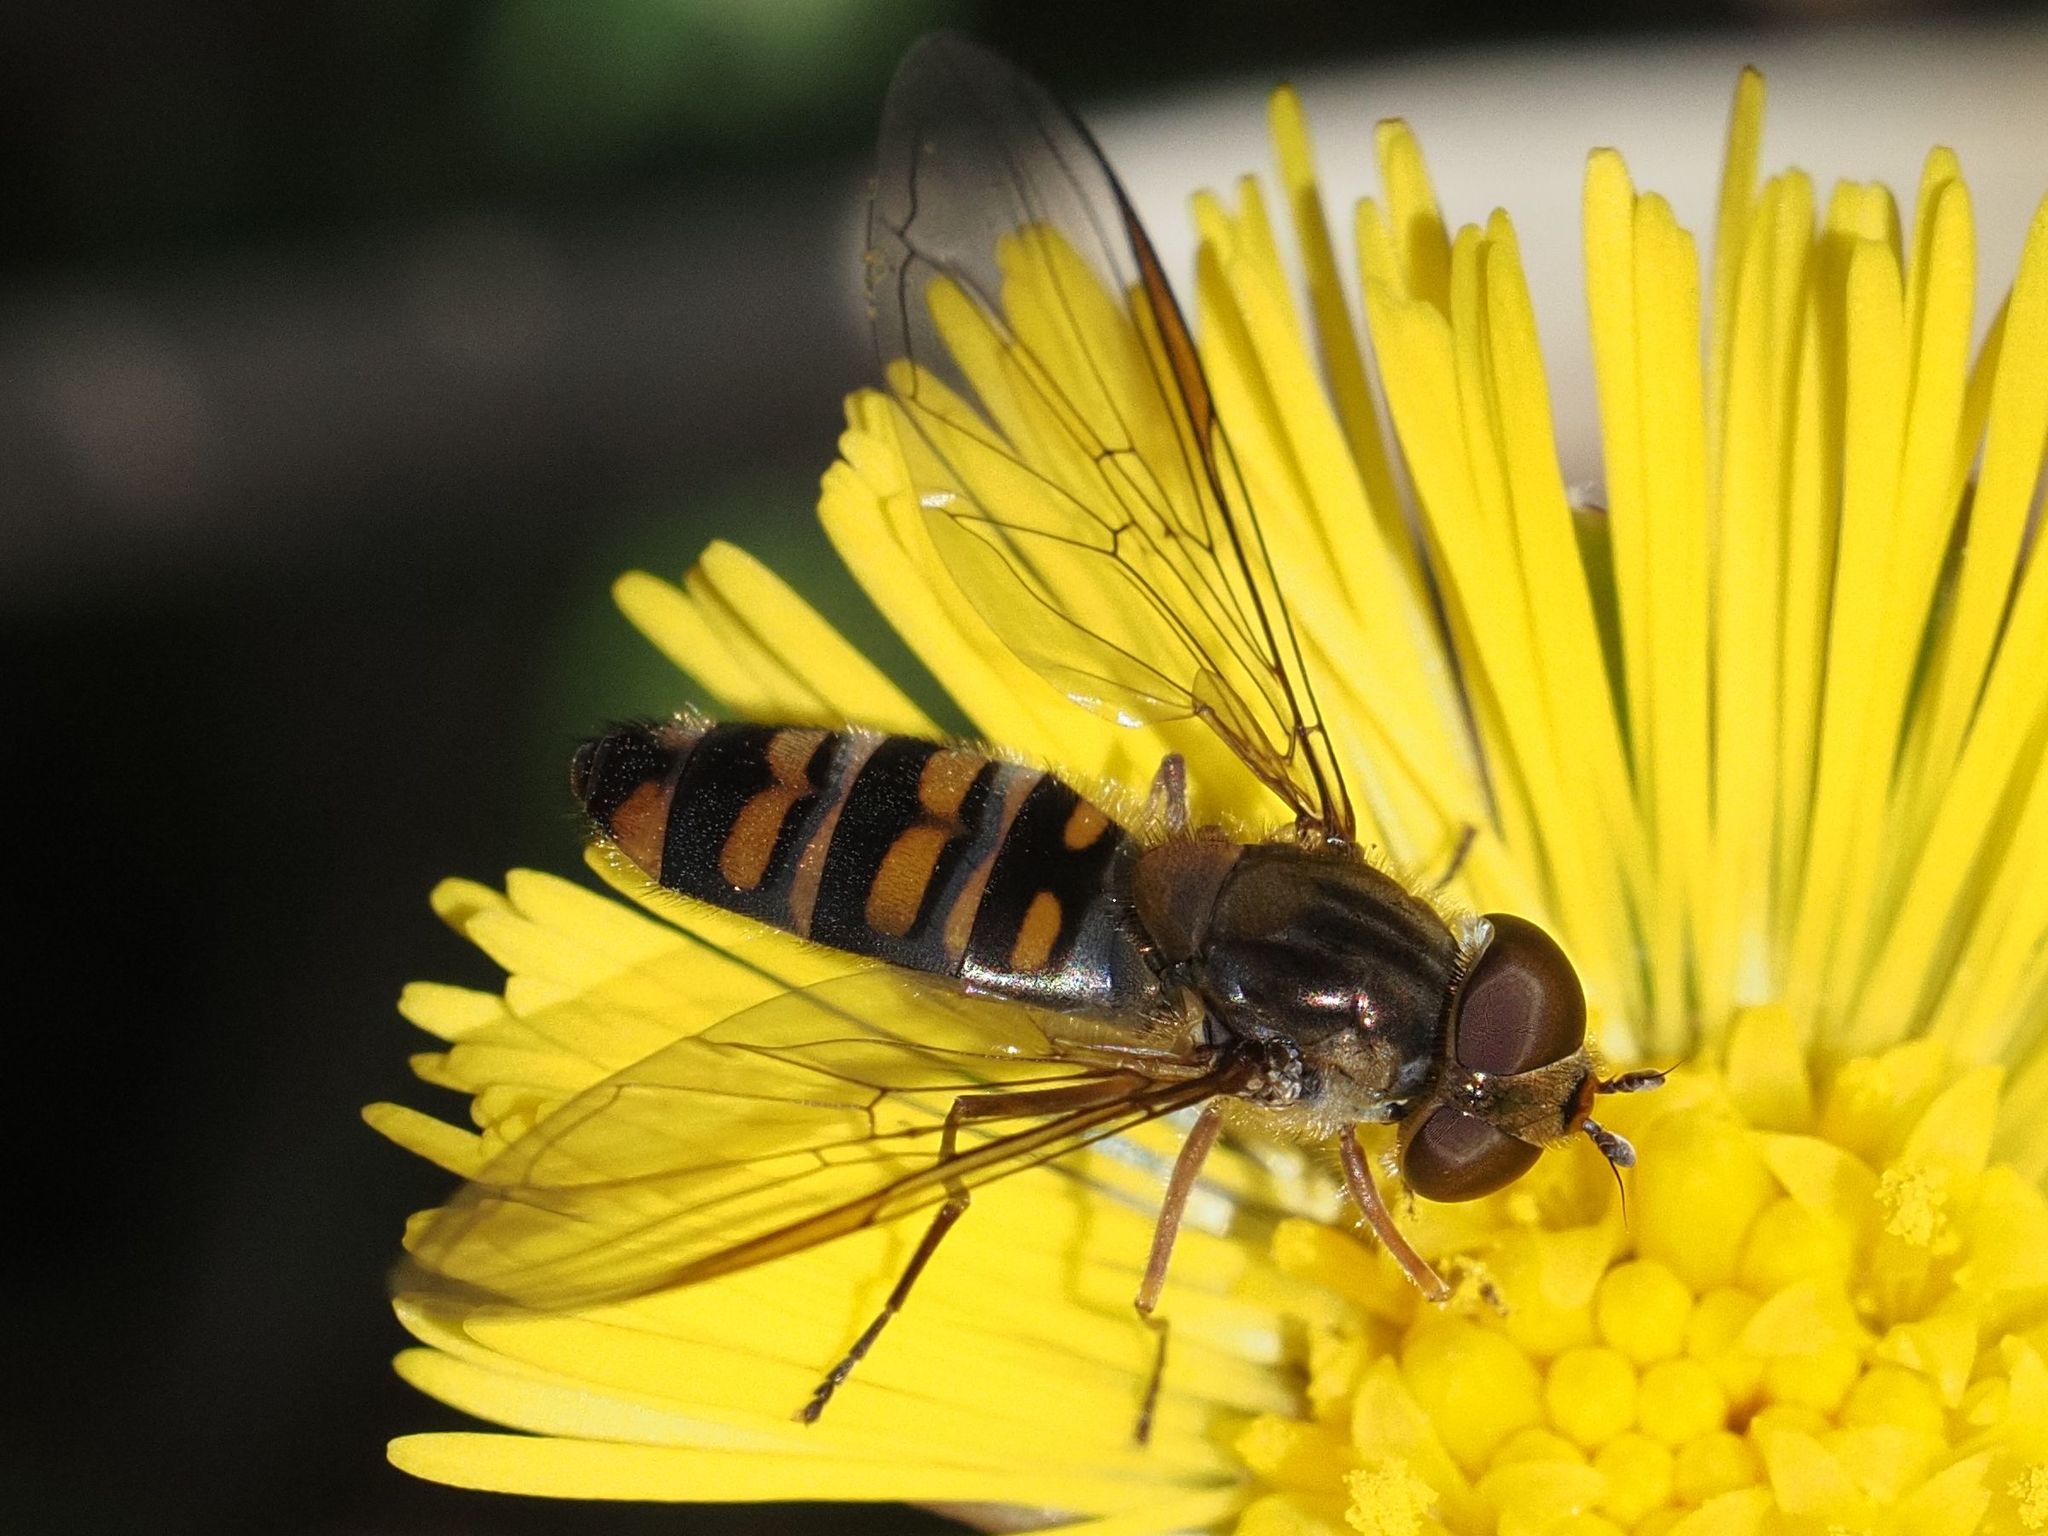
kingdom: Animalia
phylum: Arthropoda
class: Insecta
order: Diptera
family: Syrphidae
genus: Episyrphus
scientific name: Episyrphus balteatus
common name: Marmalade hoverfly
